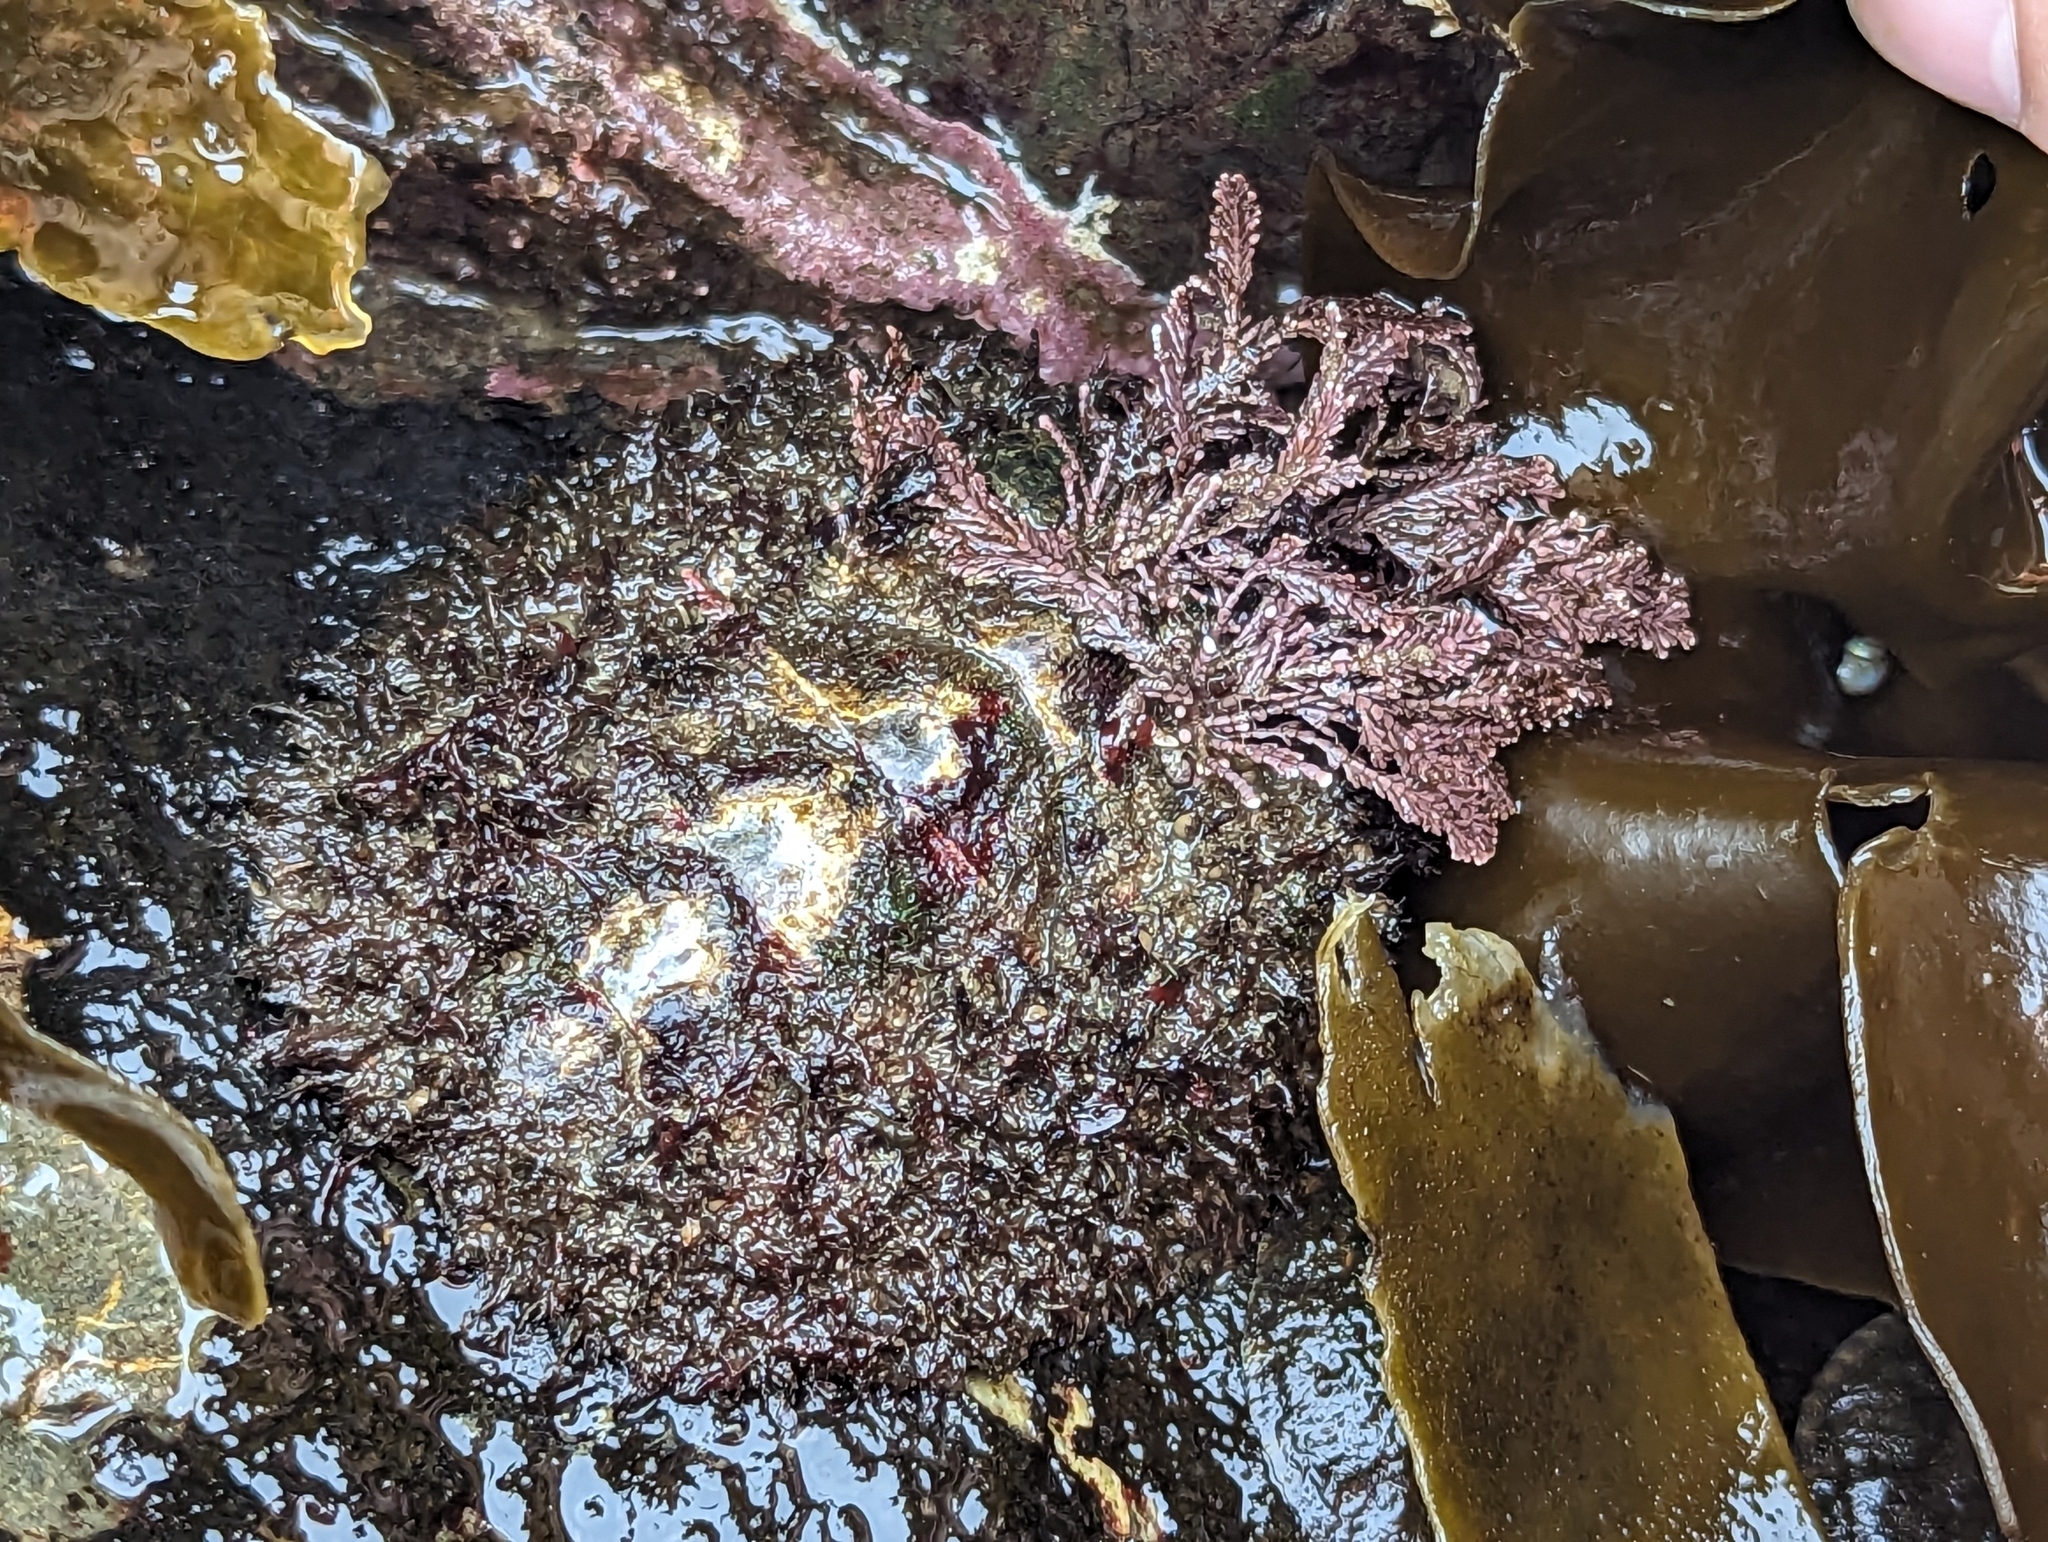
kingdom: Animalia
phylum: Mollusca
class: Polyplacophora
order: Chitonida
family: Mopaliidae
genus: Mopalia
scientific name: Mopalia muscosa
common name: Mossy chiton
